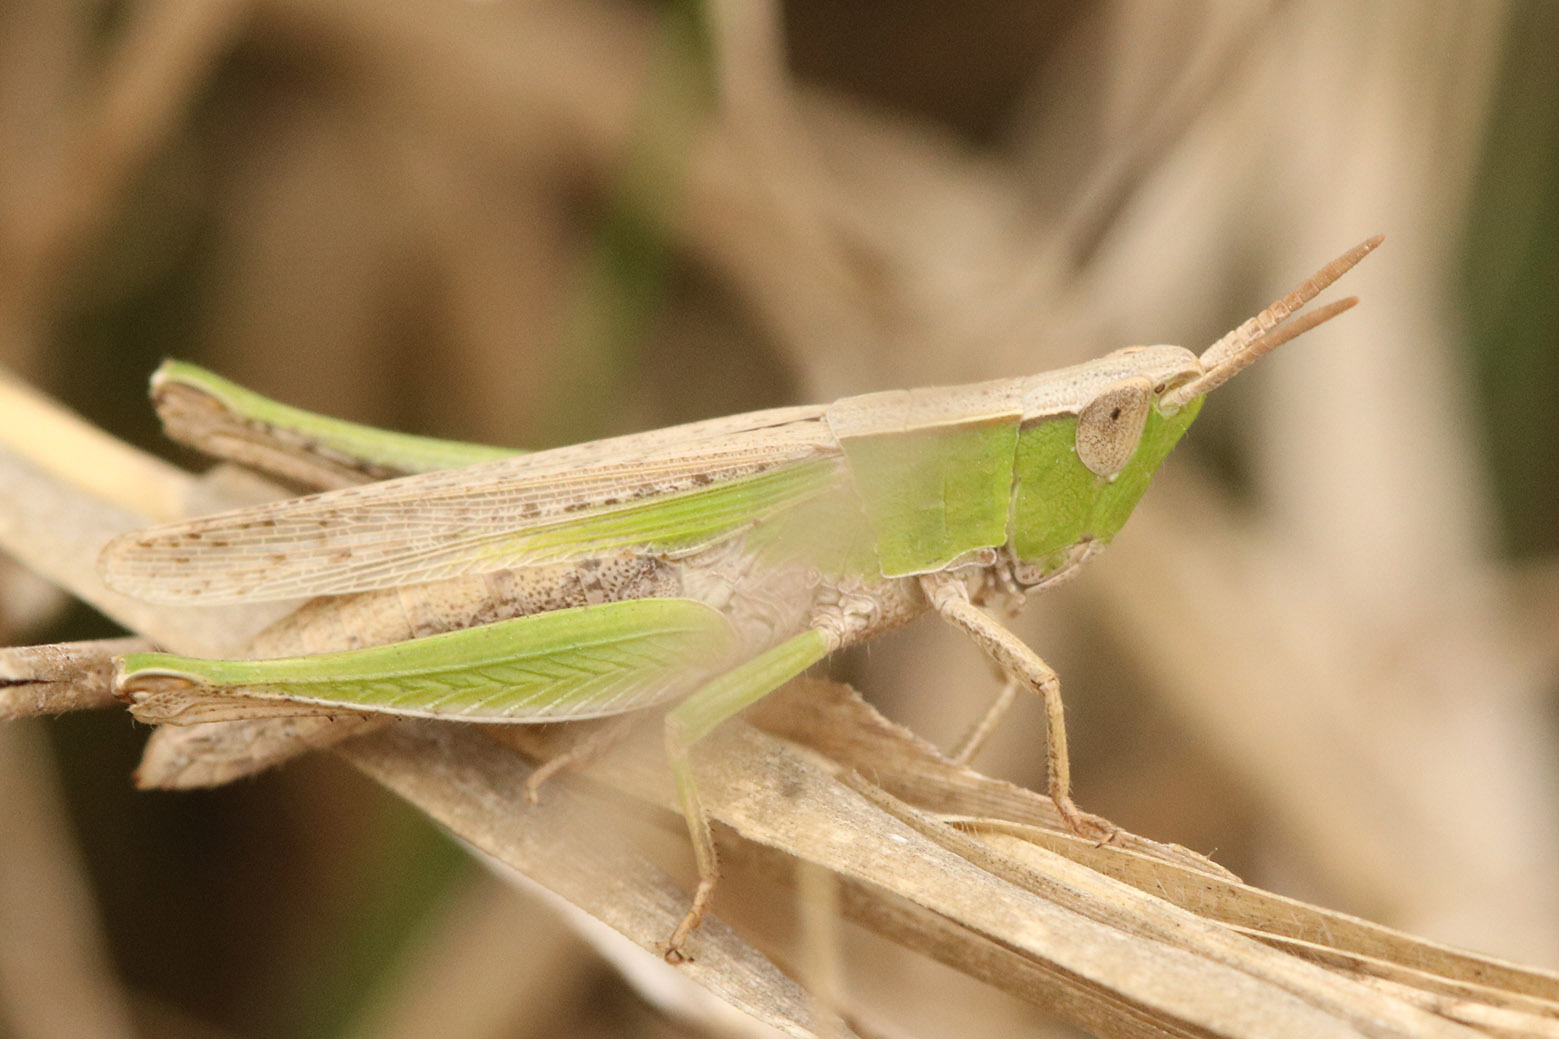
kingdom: Animalia
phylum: Arthropoda
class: Insecta
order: Orthoptera
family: Acrididae
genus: Laplatacris
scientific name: Laplatacris dispar
